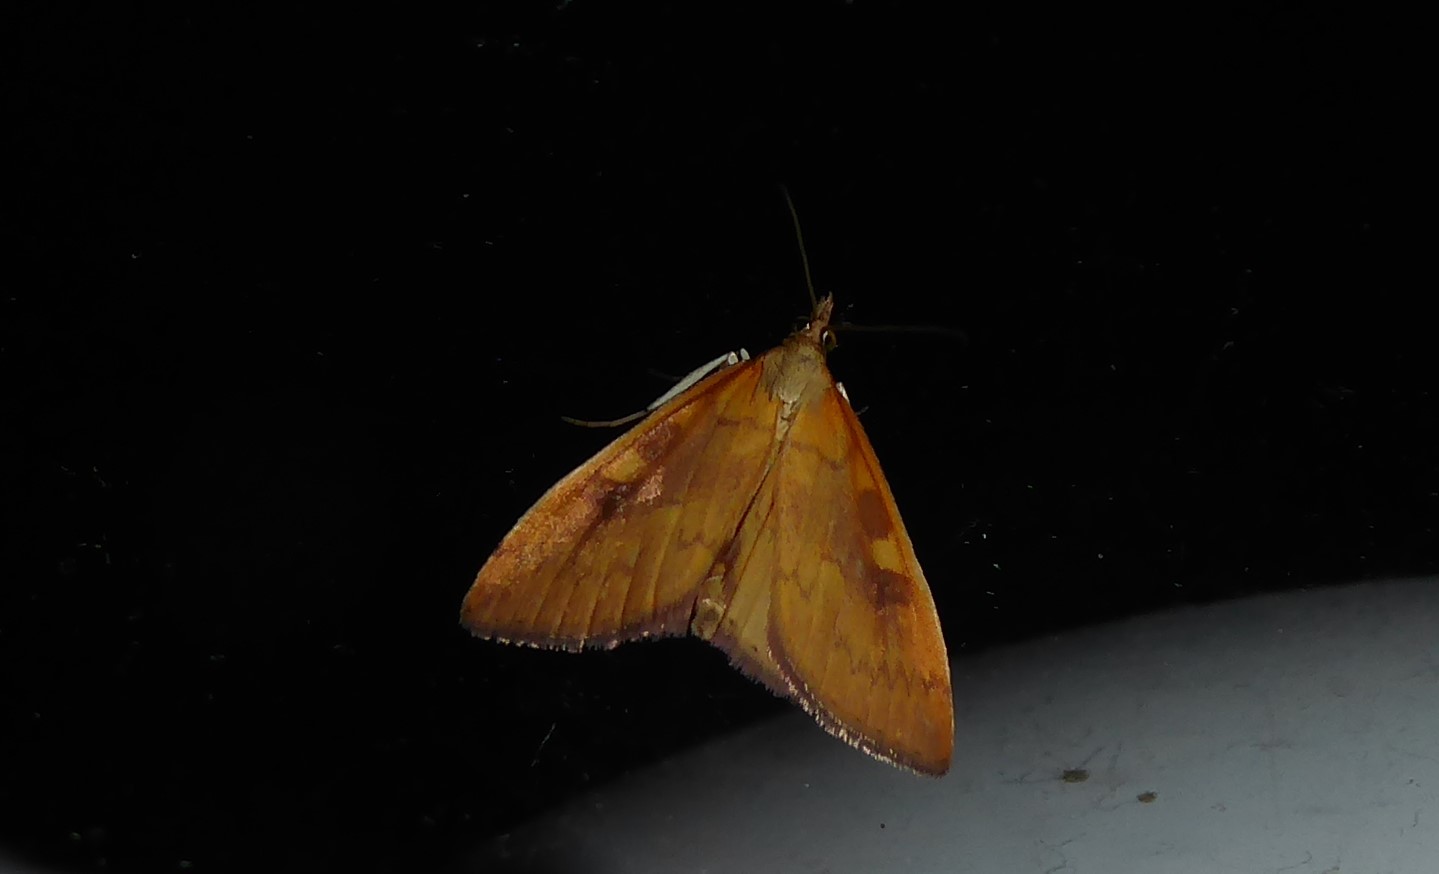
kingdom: Animalia
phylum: Arthropoda
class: Insecta
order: Lepidoptera
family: Crambidae
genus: Udea
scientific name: Udea Mnesictena flavidalis
